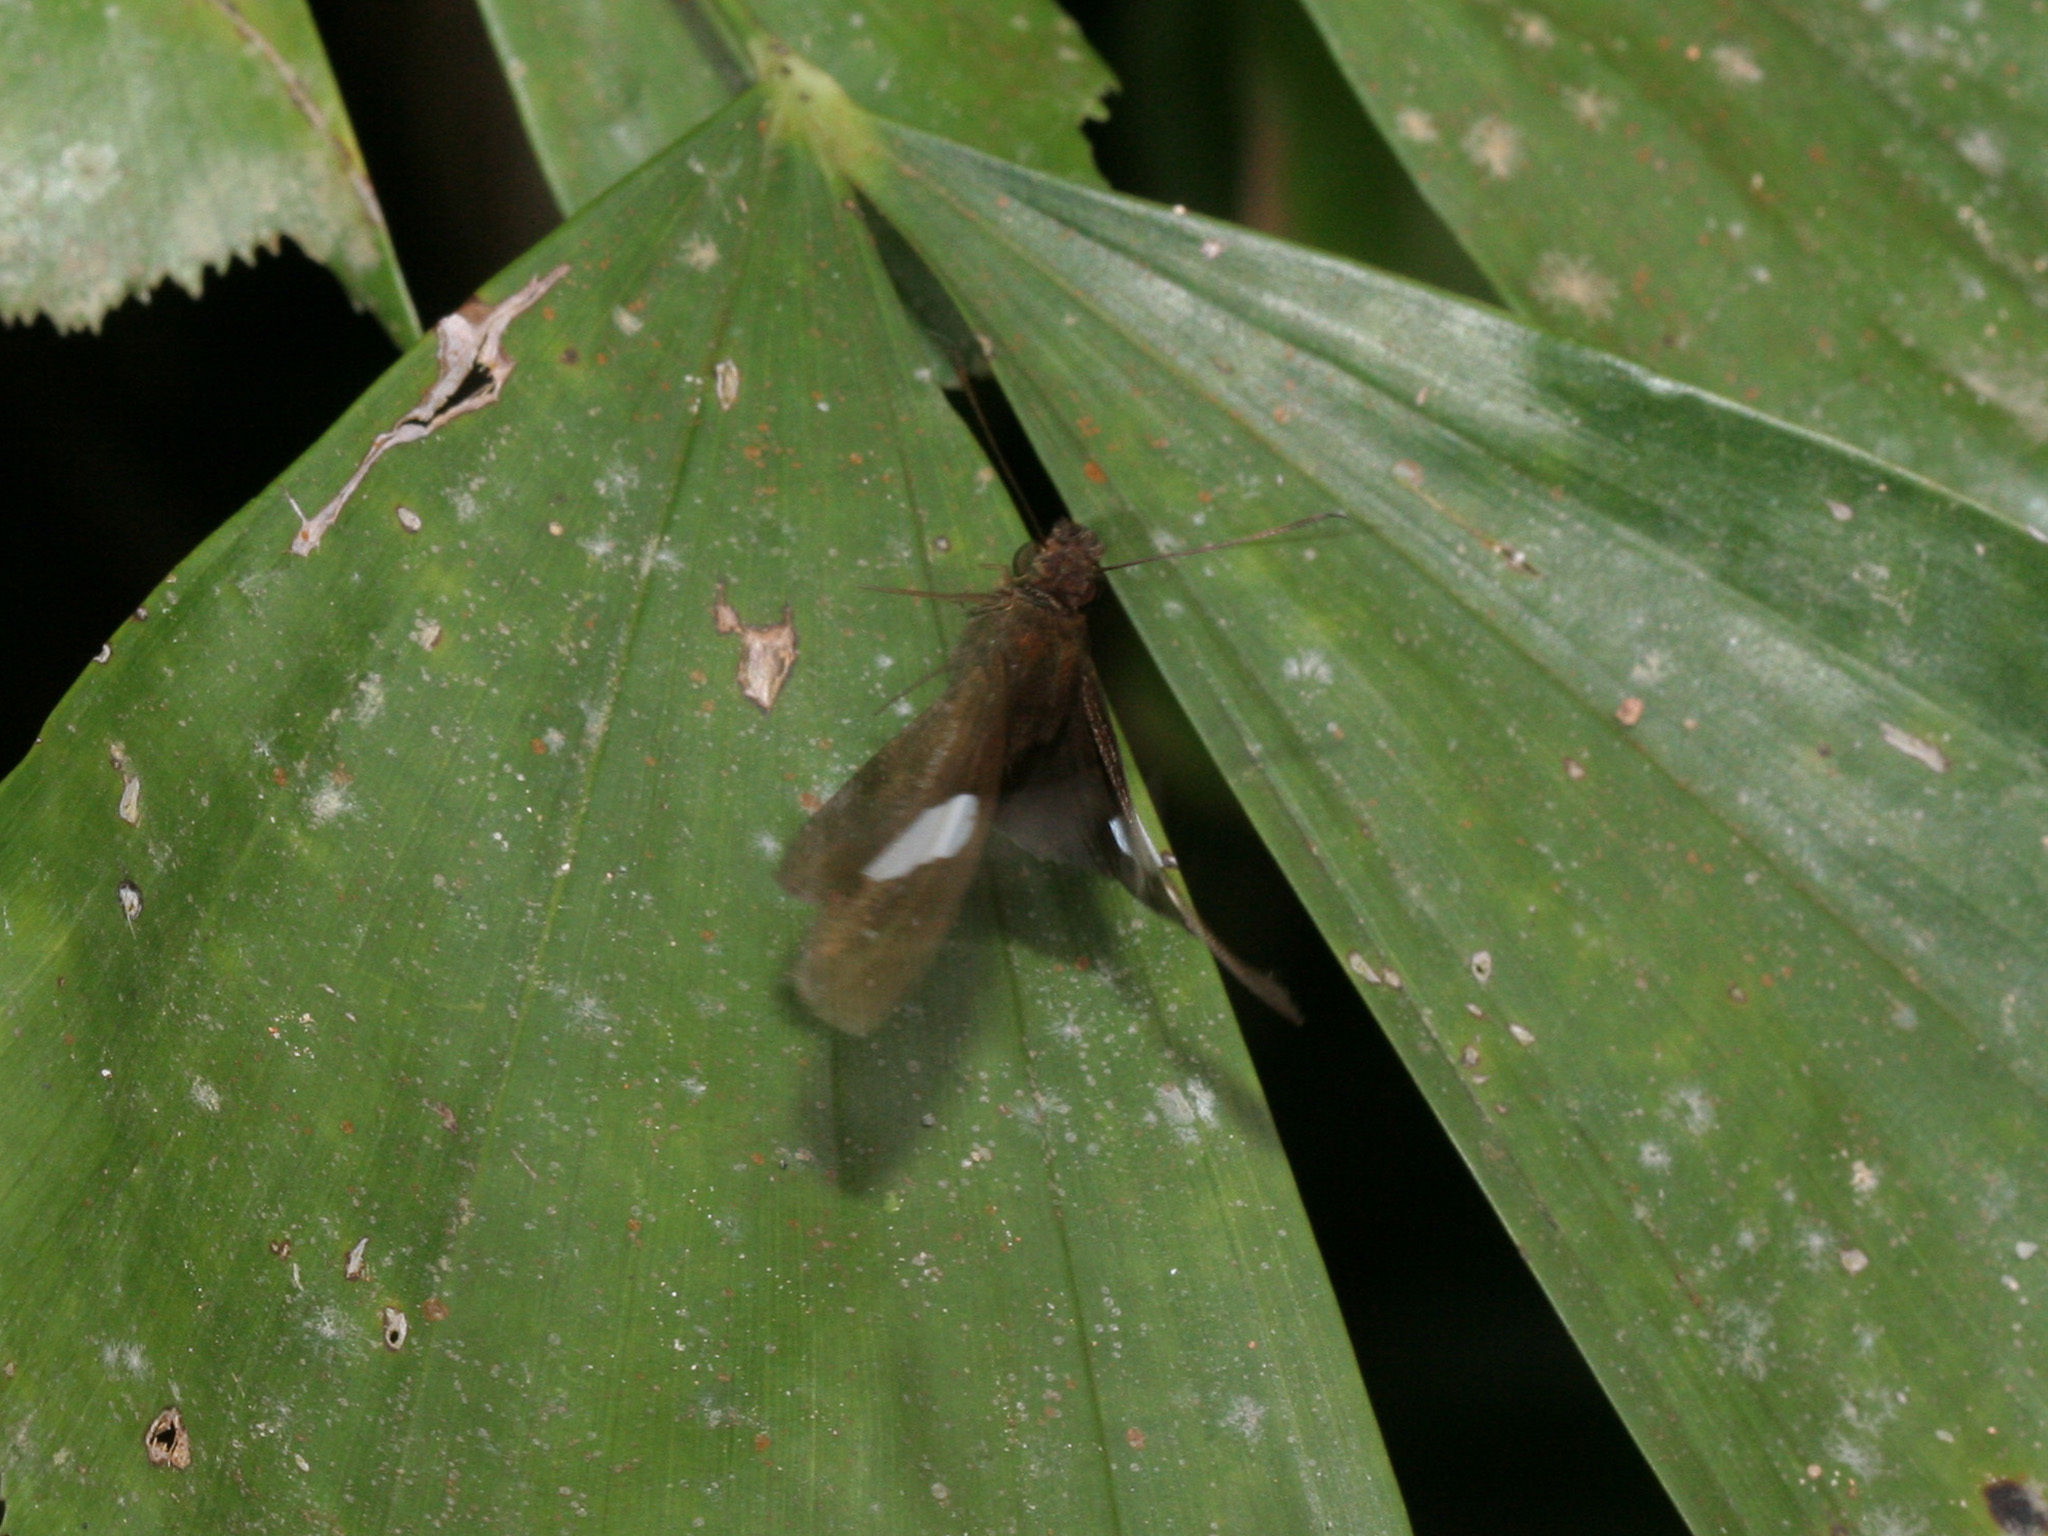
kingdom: Animalia
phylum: Arthropoda
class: Insecta
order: Lepidoptera
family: Hesperiidae
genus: Notocrypta
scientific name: Notocrypta paralysos
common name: Common banded demon
